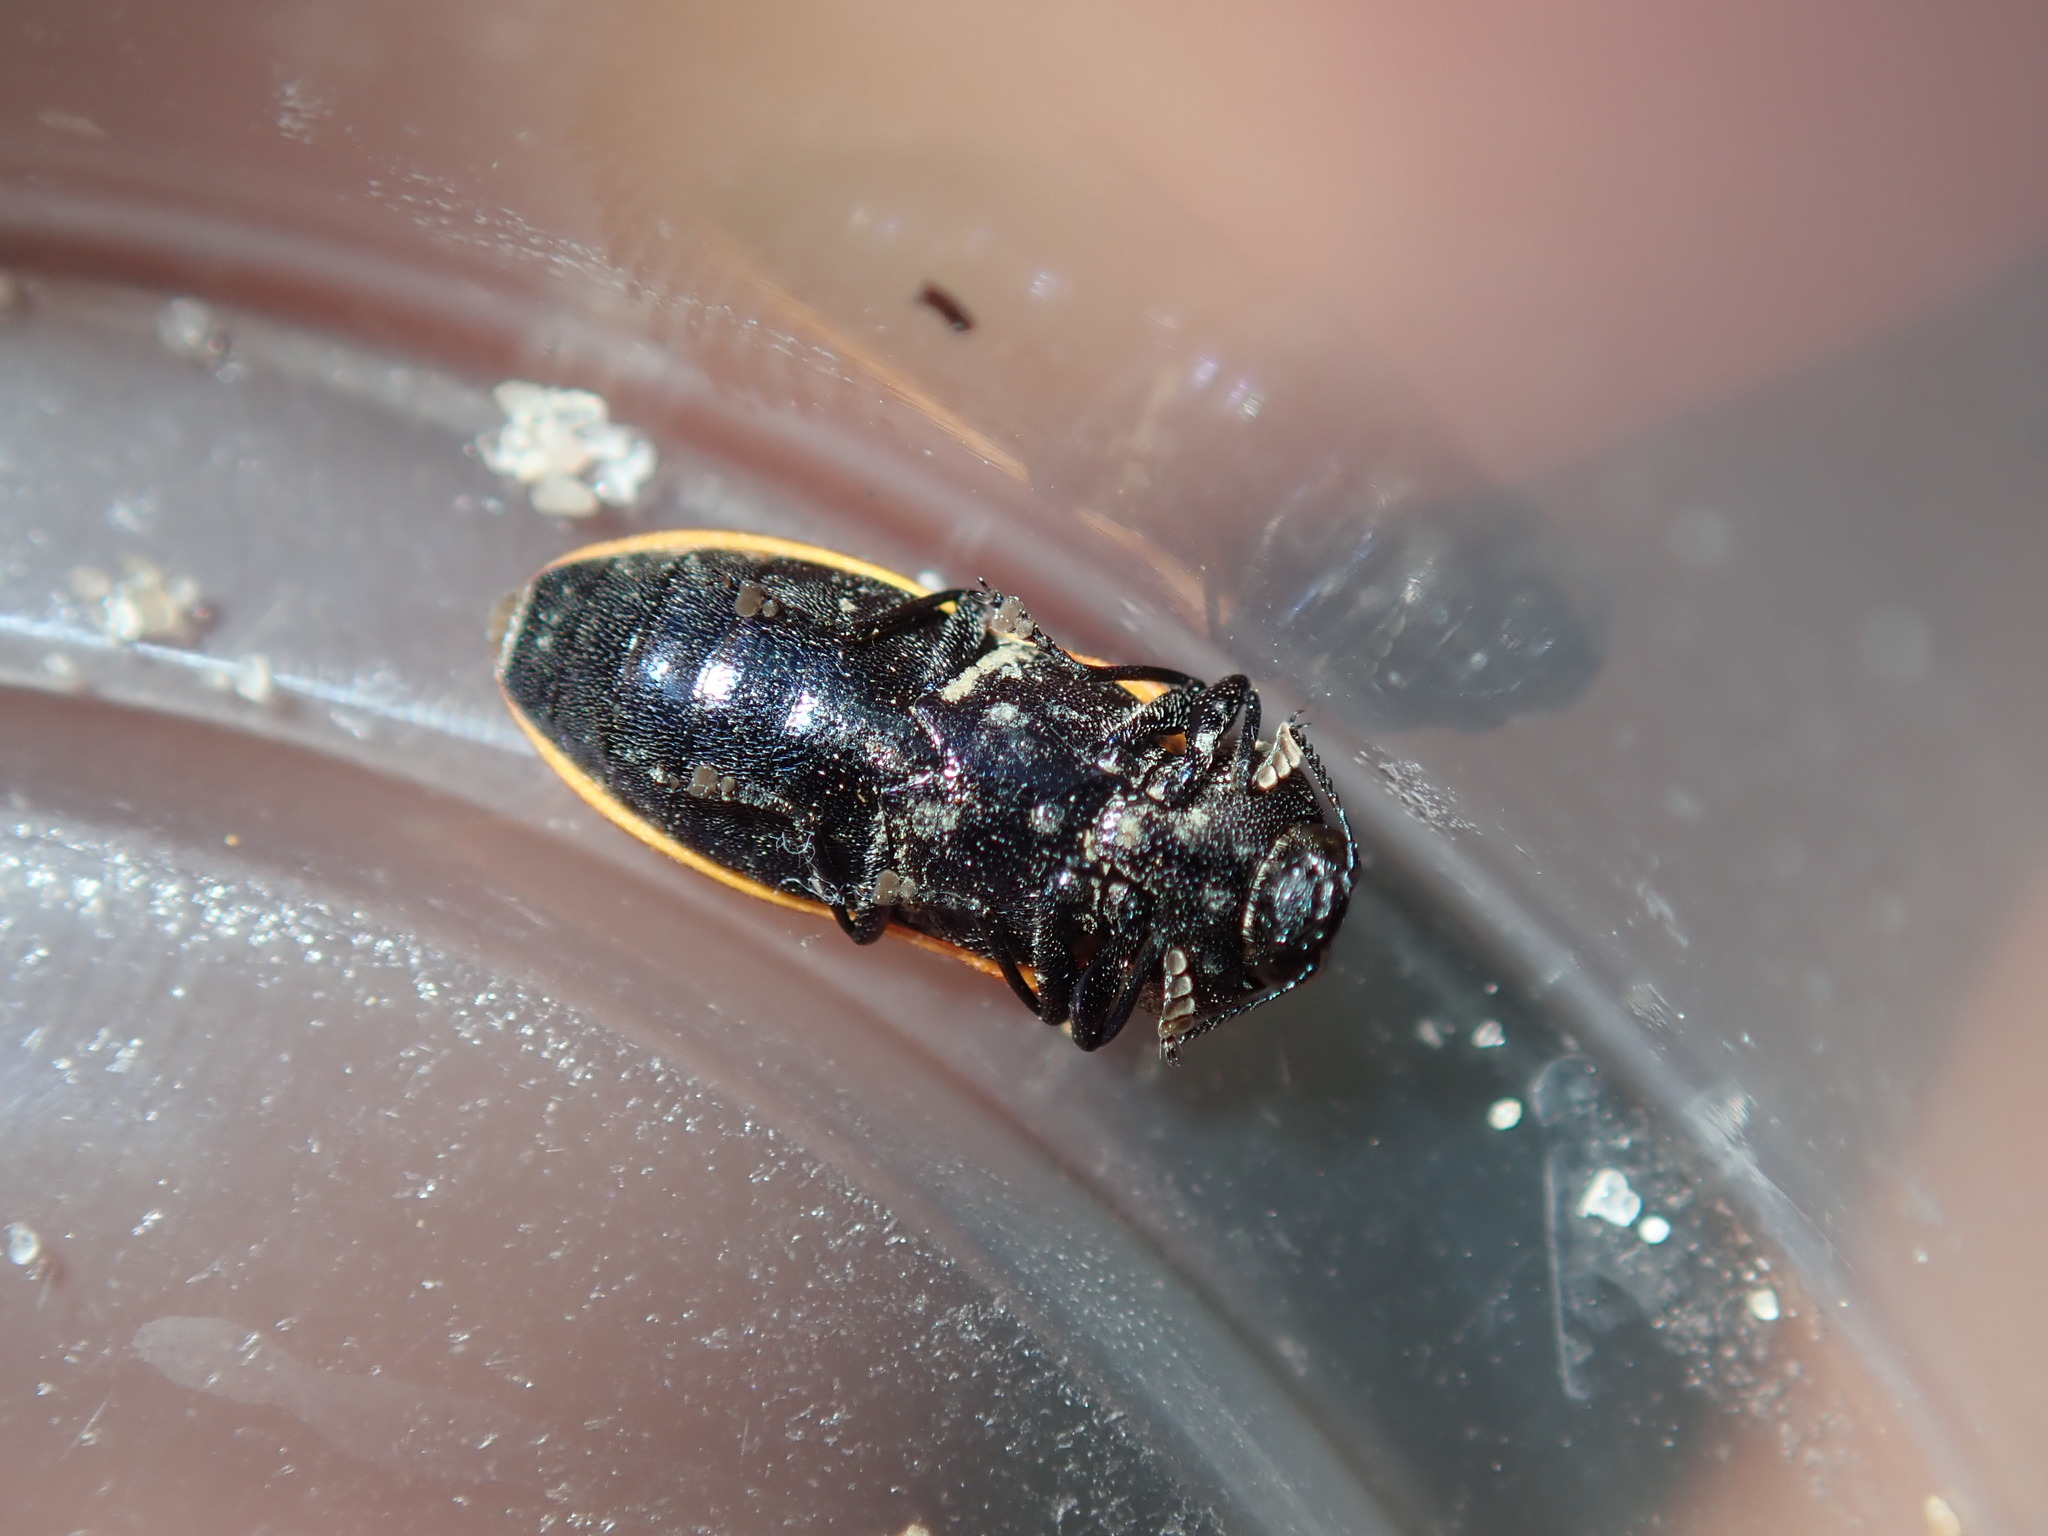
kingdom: Animalia
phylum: Arthropoda
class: Insecta
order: Coleoptera
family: Buprestidae
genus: Castiarina
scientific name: Castiarina erythroptera
